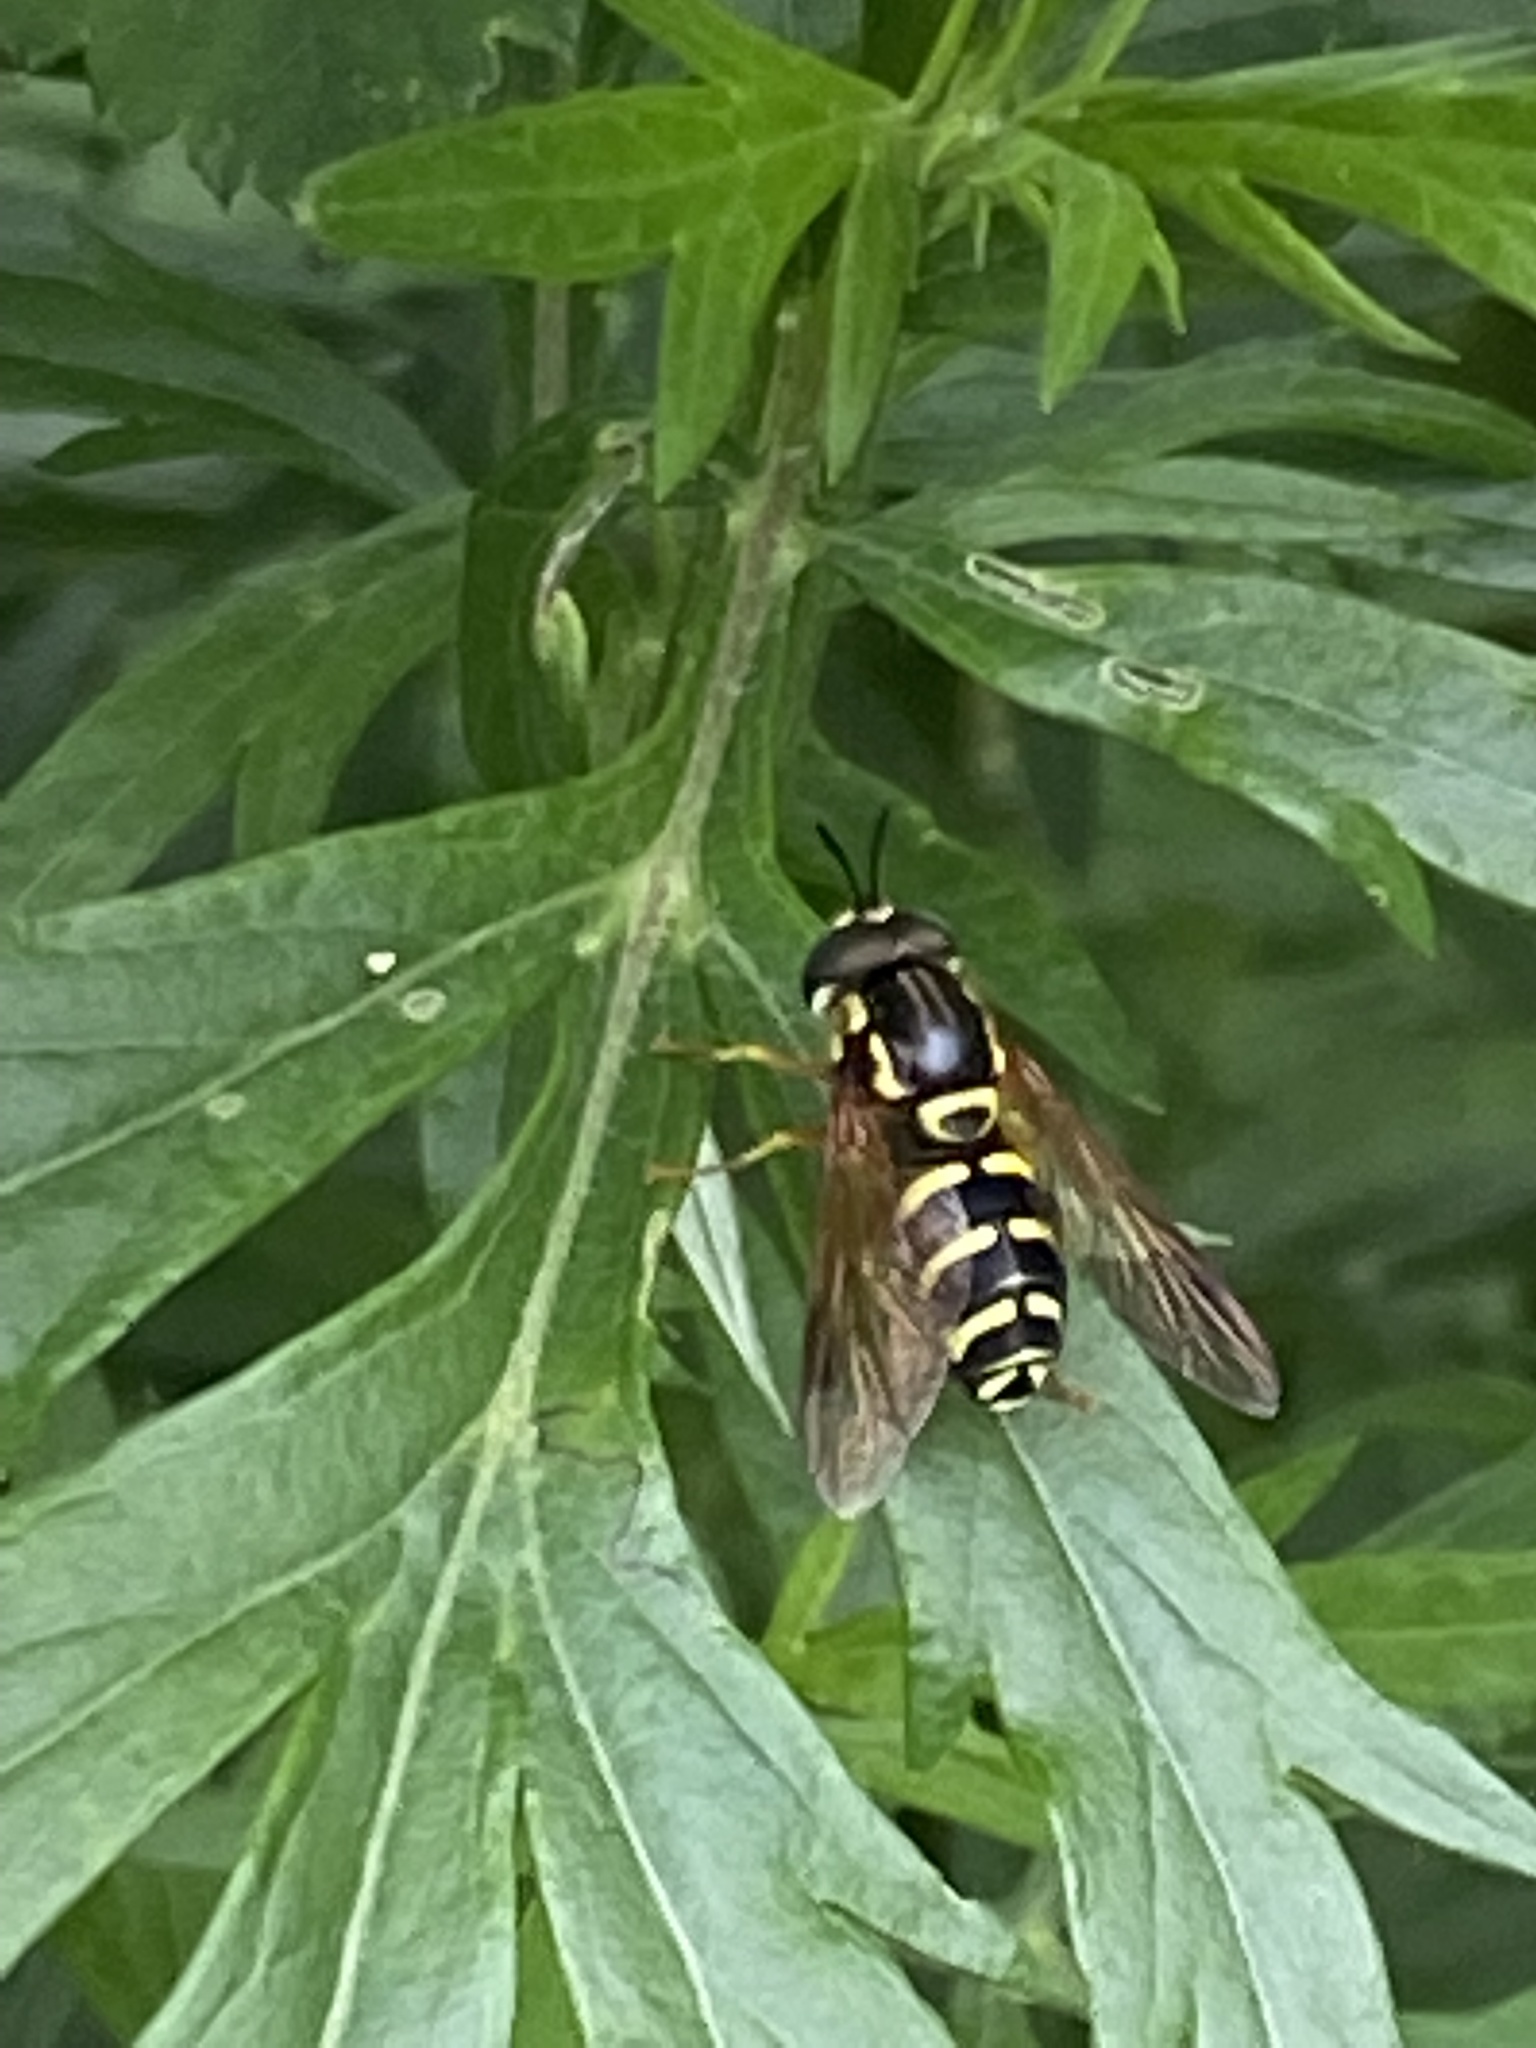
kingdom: Animalia
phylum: Arthropoda
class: Insecta
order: Diptera
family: Syrphidae
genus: Chrysotoxum
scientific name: Chrysotoxum festivum
